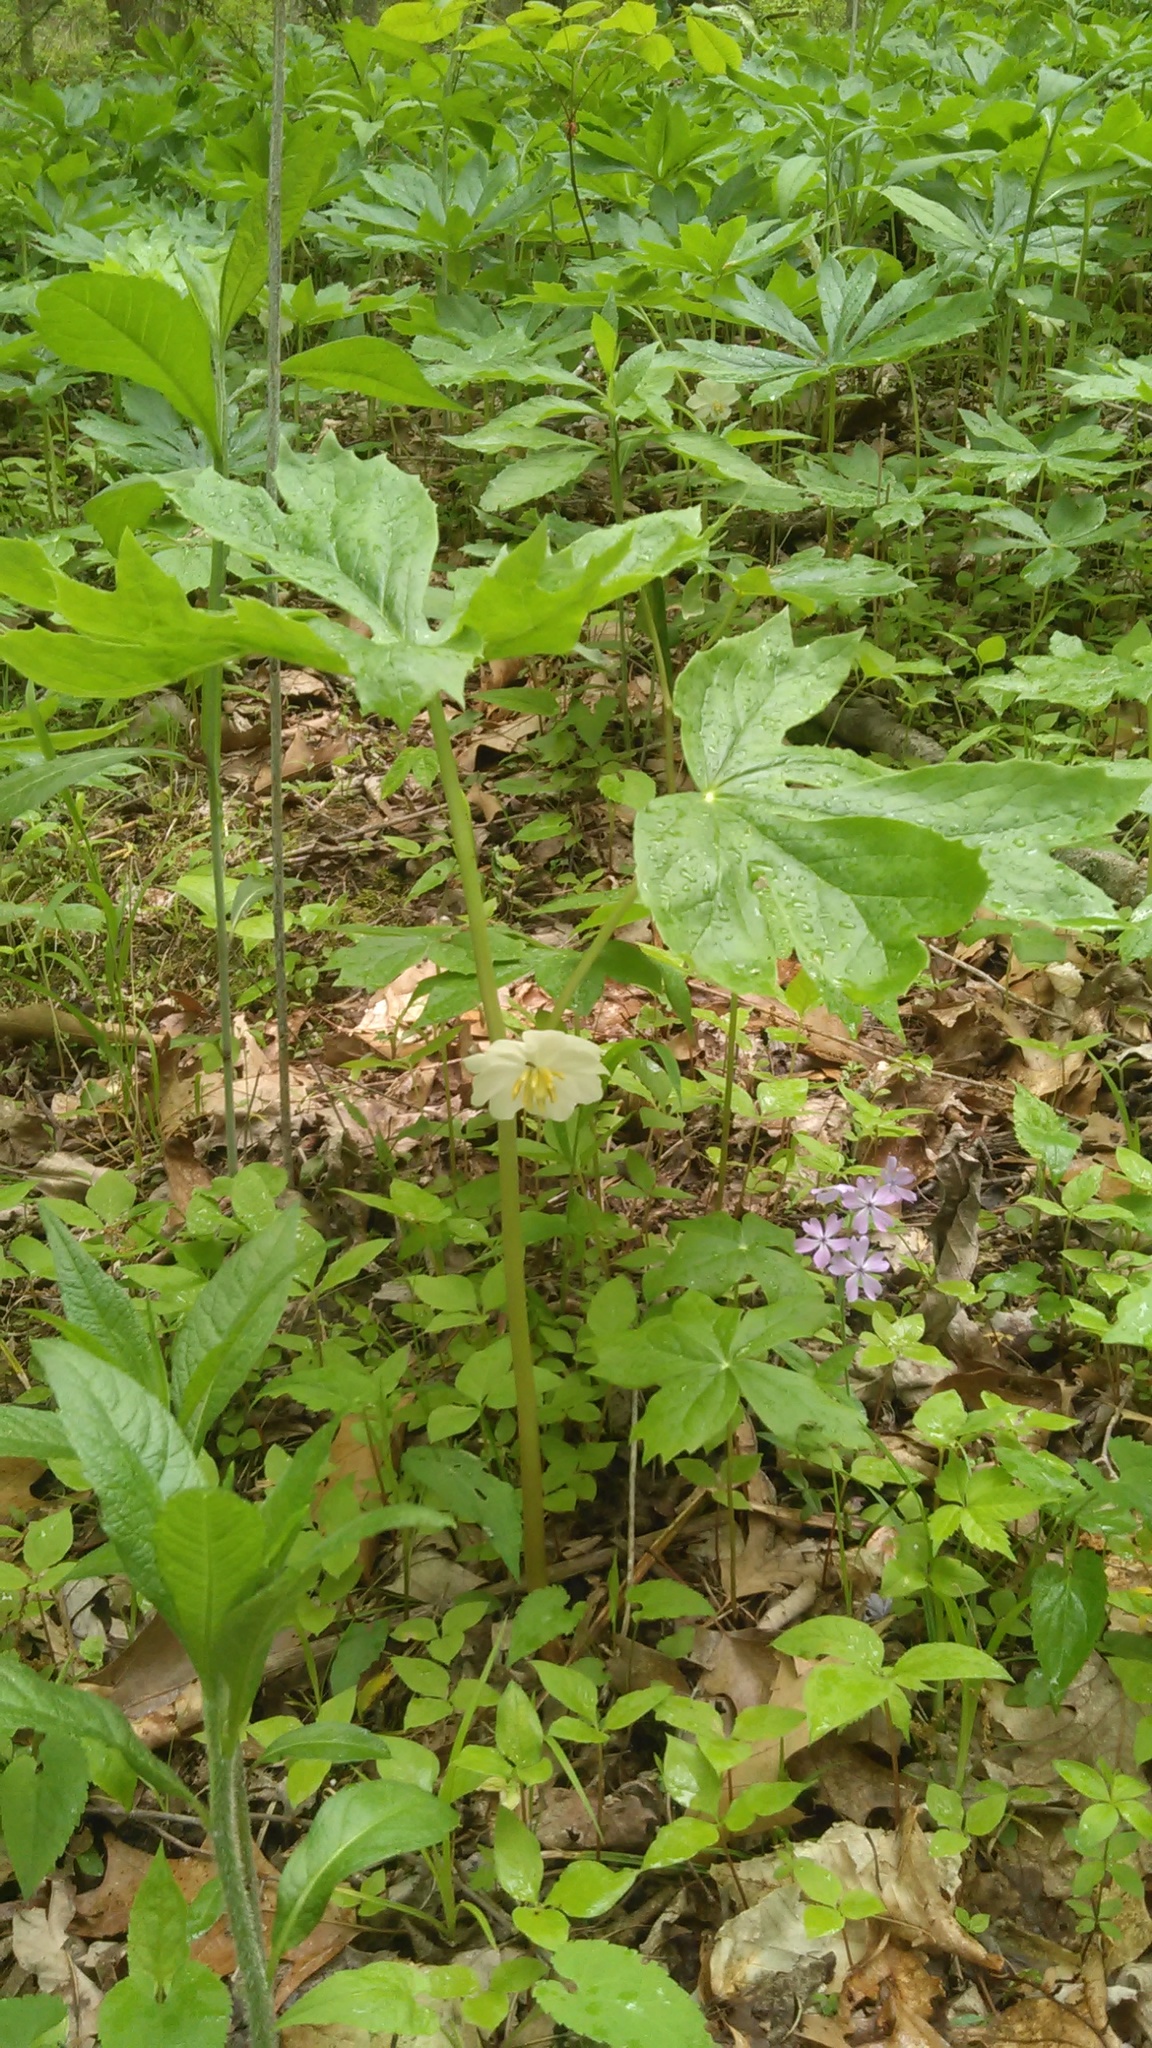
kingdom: Plantae
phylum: Tracheophyta
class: Magnoliopsida
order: Ranunculales
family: Berberidaceae
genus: Podophyllum
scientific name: Podophyllum peltatum
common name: Wild mandrake
